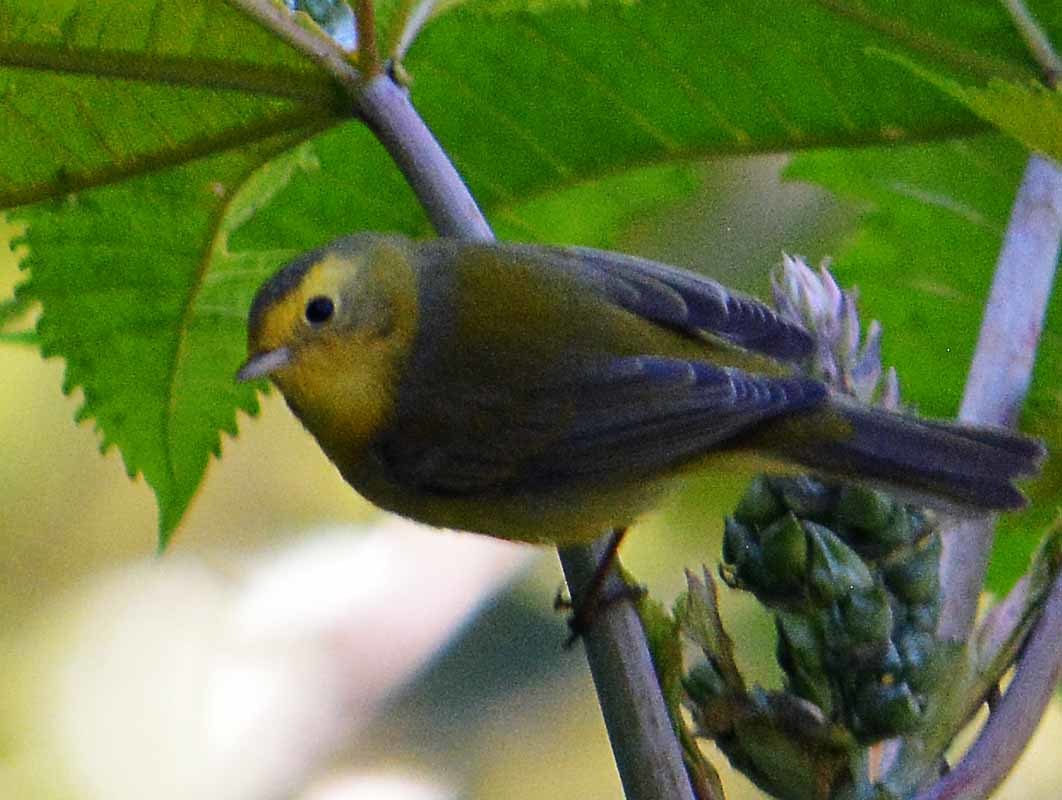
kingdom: Animalia
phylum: Chordata
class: Aves
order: Passeriformes
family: Parulidae
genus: Cardellina
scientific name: Cardellina pusilla
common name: Wilson's warbler
